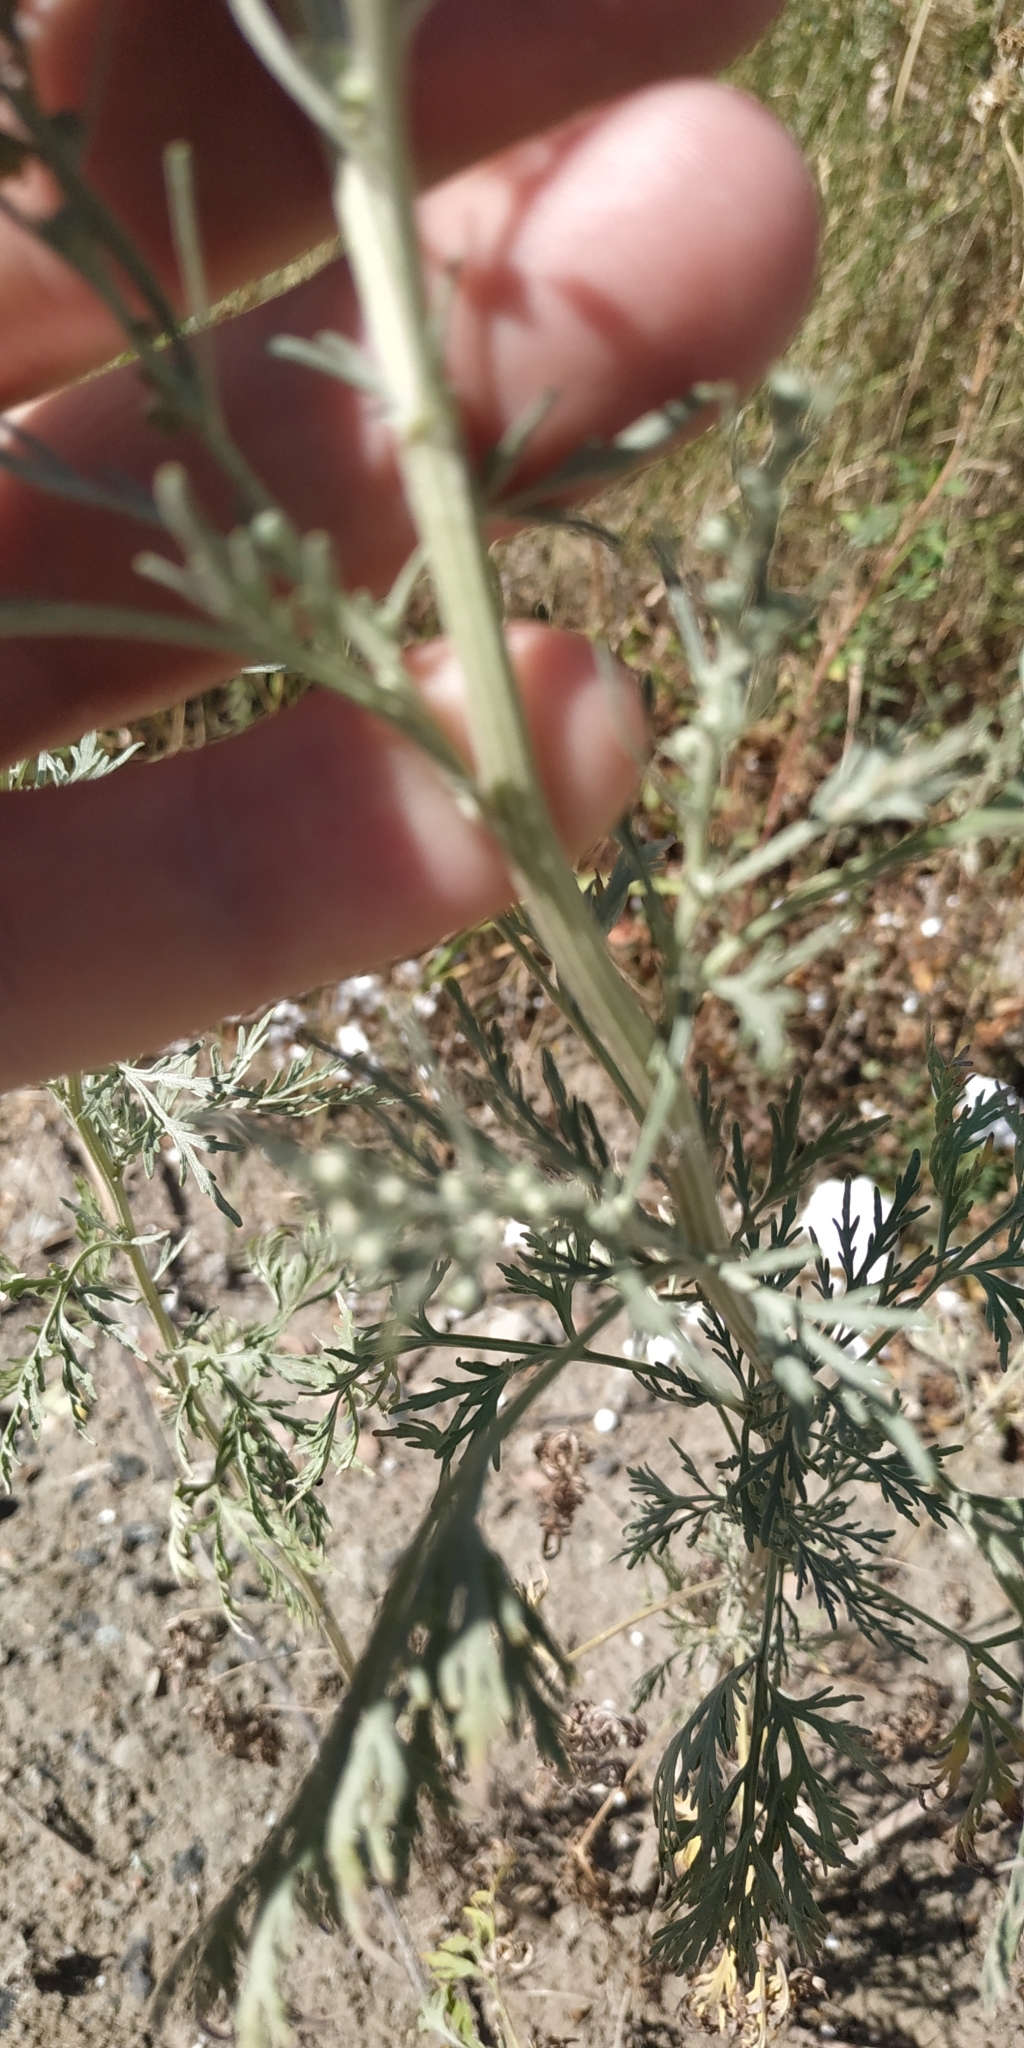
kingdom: Plantae
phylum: Tracheophyta
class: Magnoliopsida
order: Asterales
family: Asteraceae
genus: Artemisia
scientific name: Artemisia absinthium
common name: Wormwood
